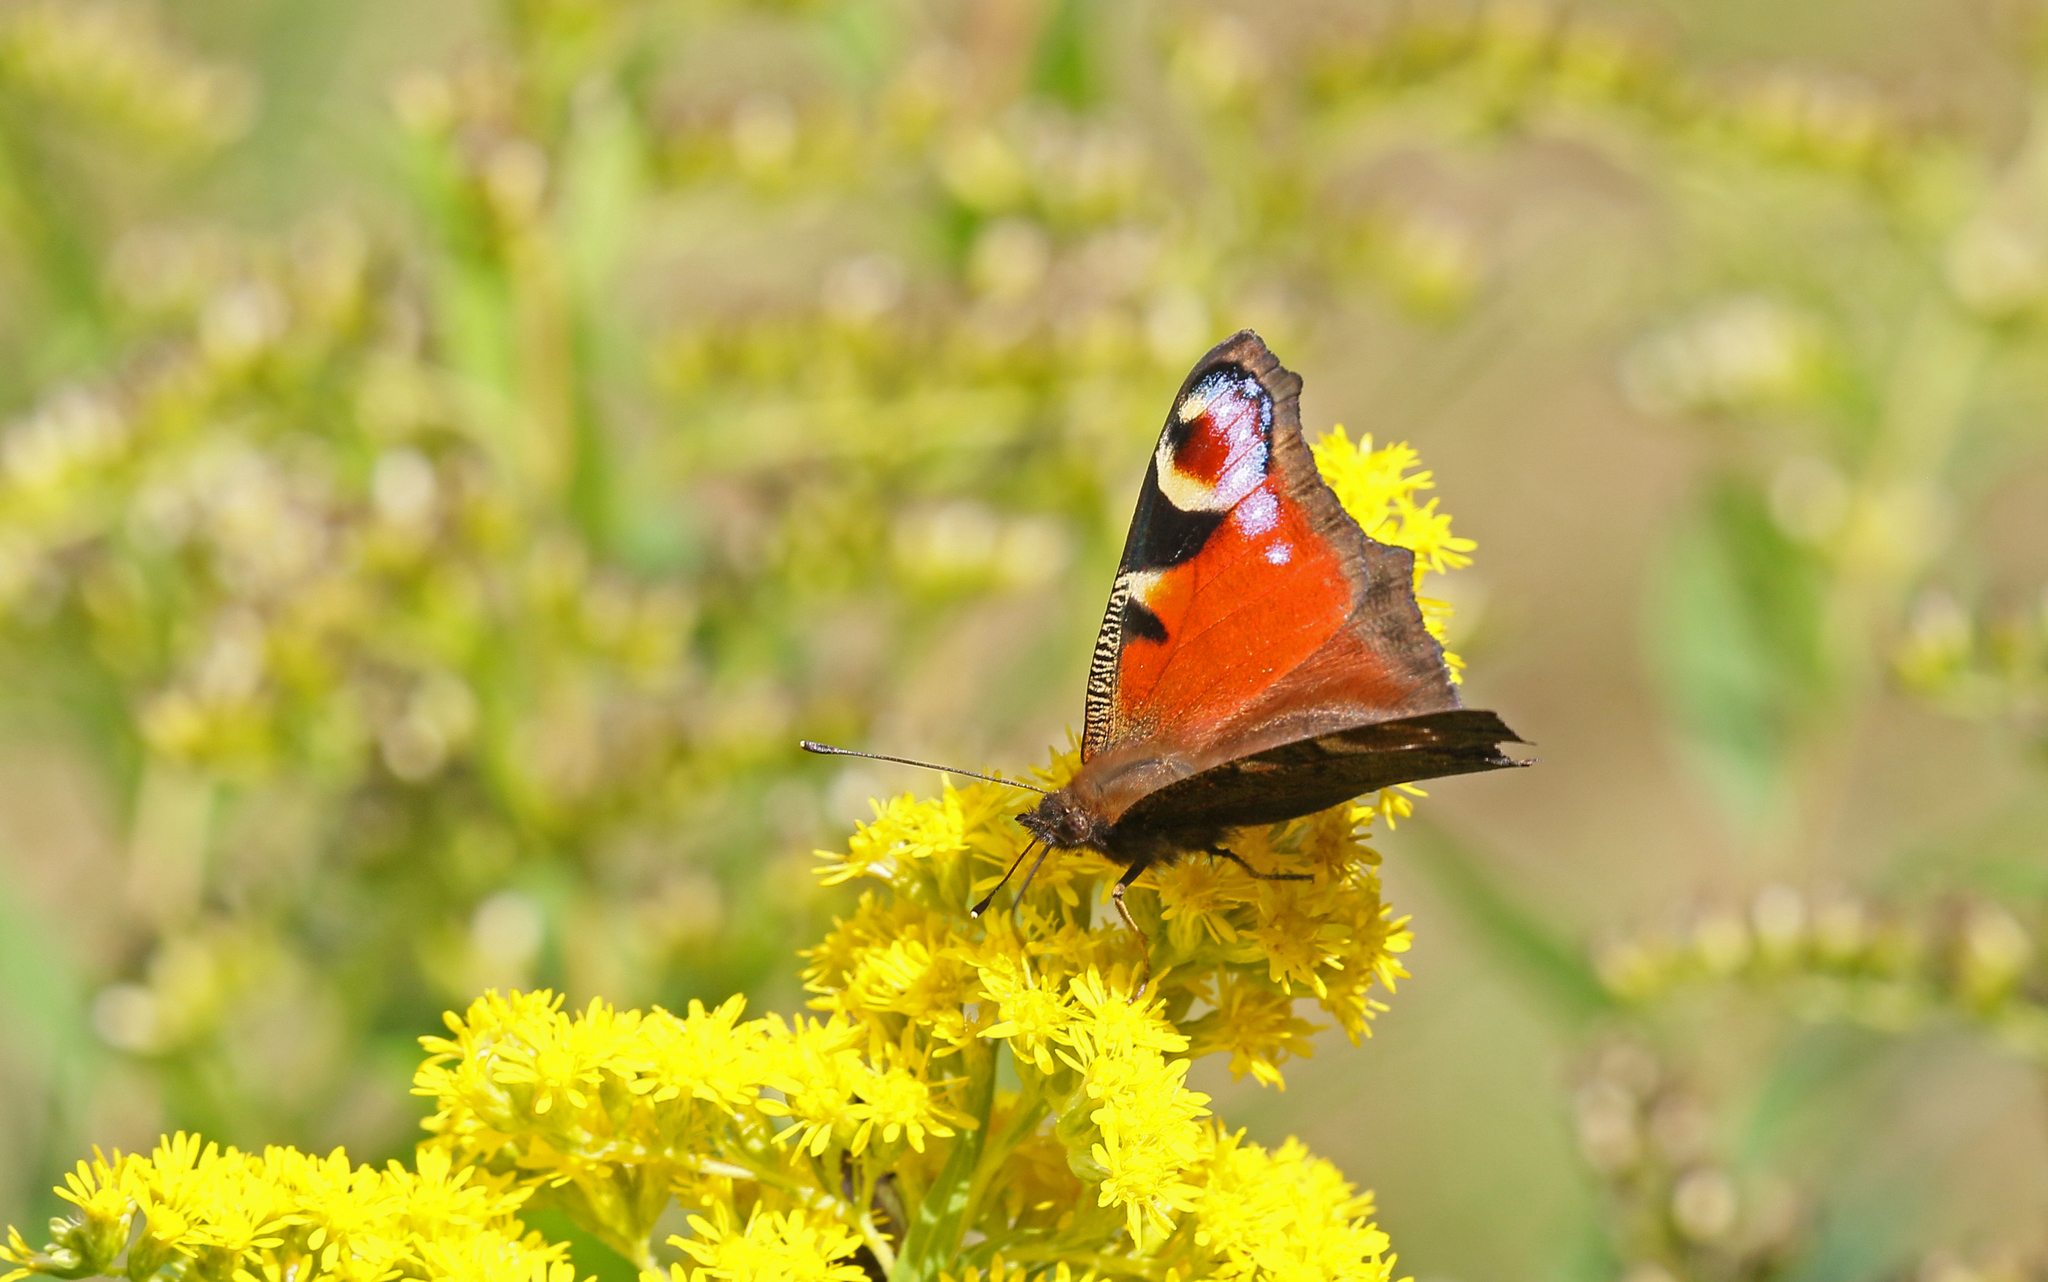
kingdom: Animalia
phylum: Arthropoda
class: Insecta
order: Lepidoptera
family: Nymphalidae
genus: Aglais
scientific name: Aglais io
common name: Peacock
